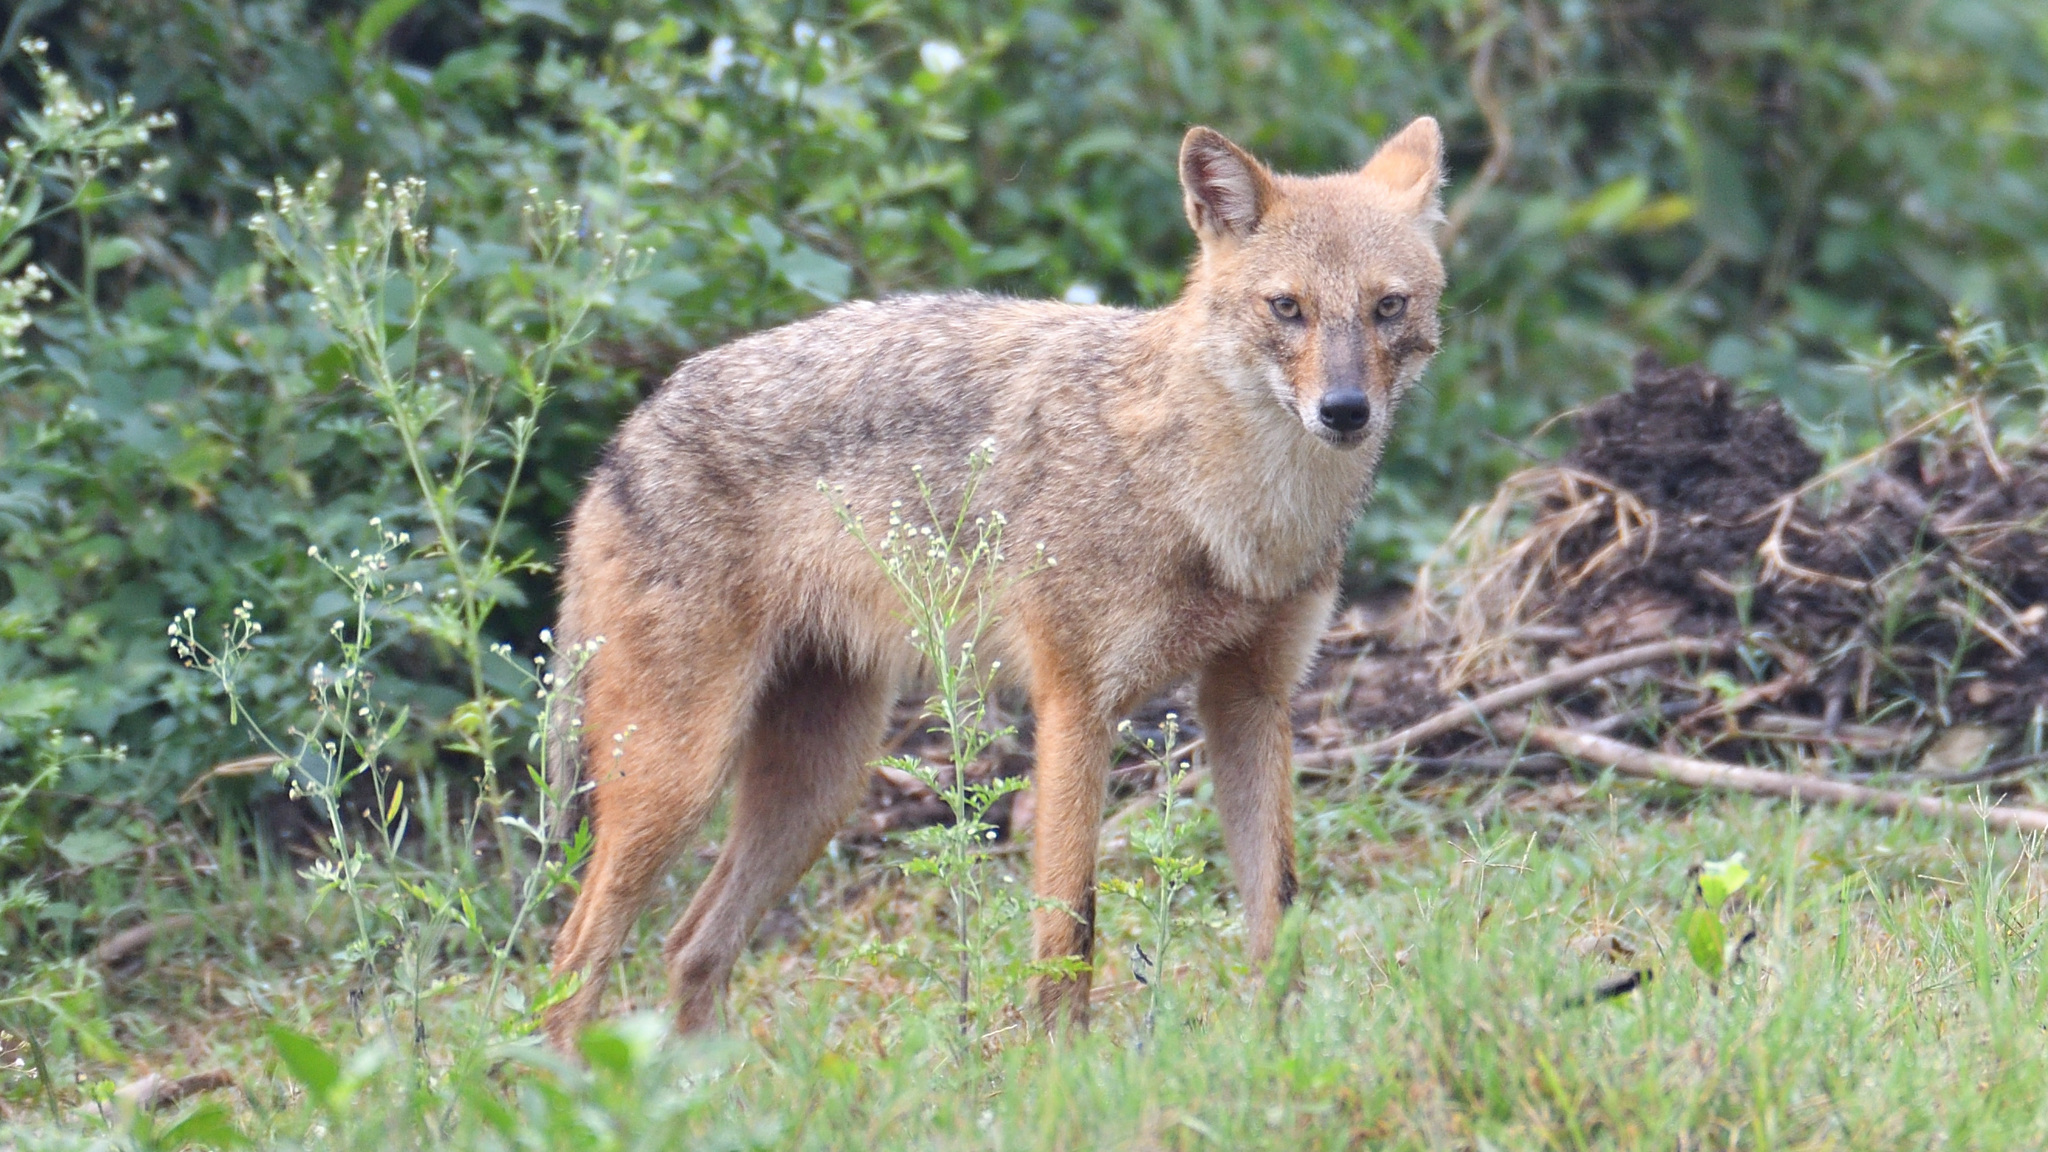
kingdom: Animalia
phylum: Chordata
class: Mammalia
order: Carnivora
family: Canidae
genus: Canis
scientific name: Canis aureus
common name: Golden jackal
